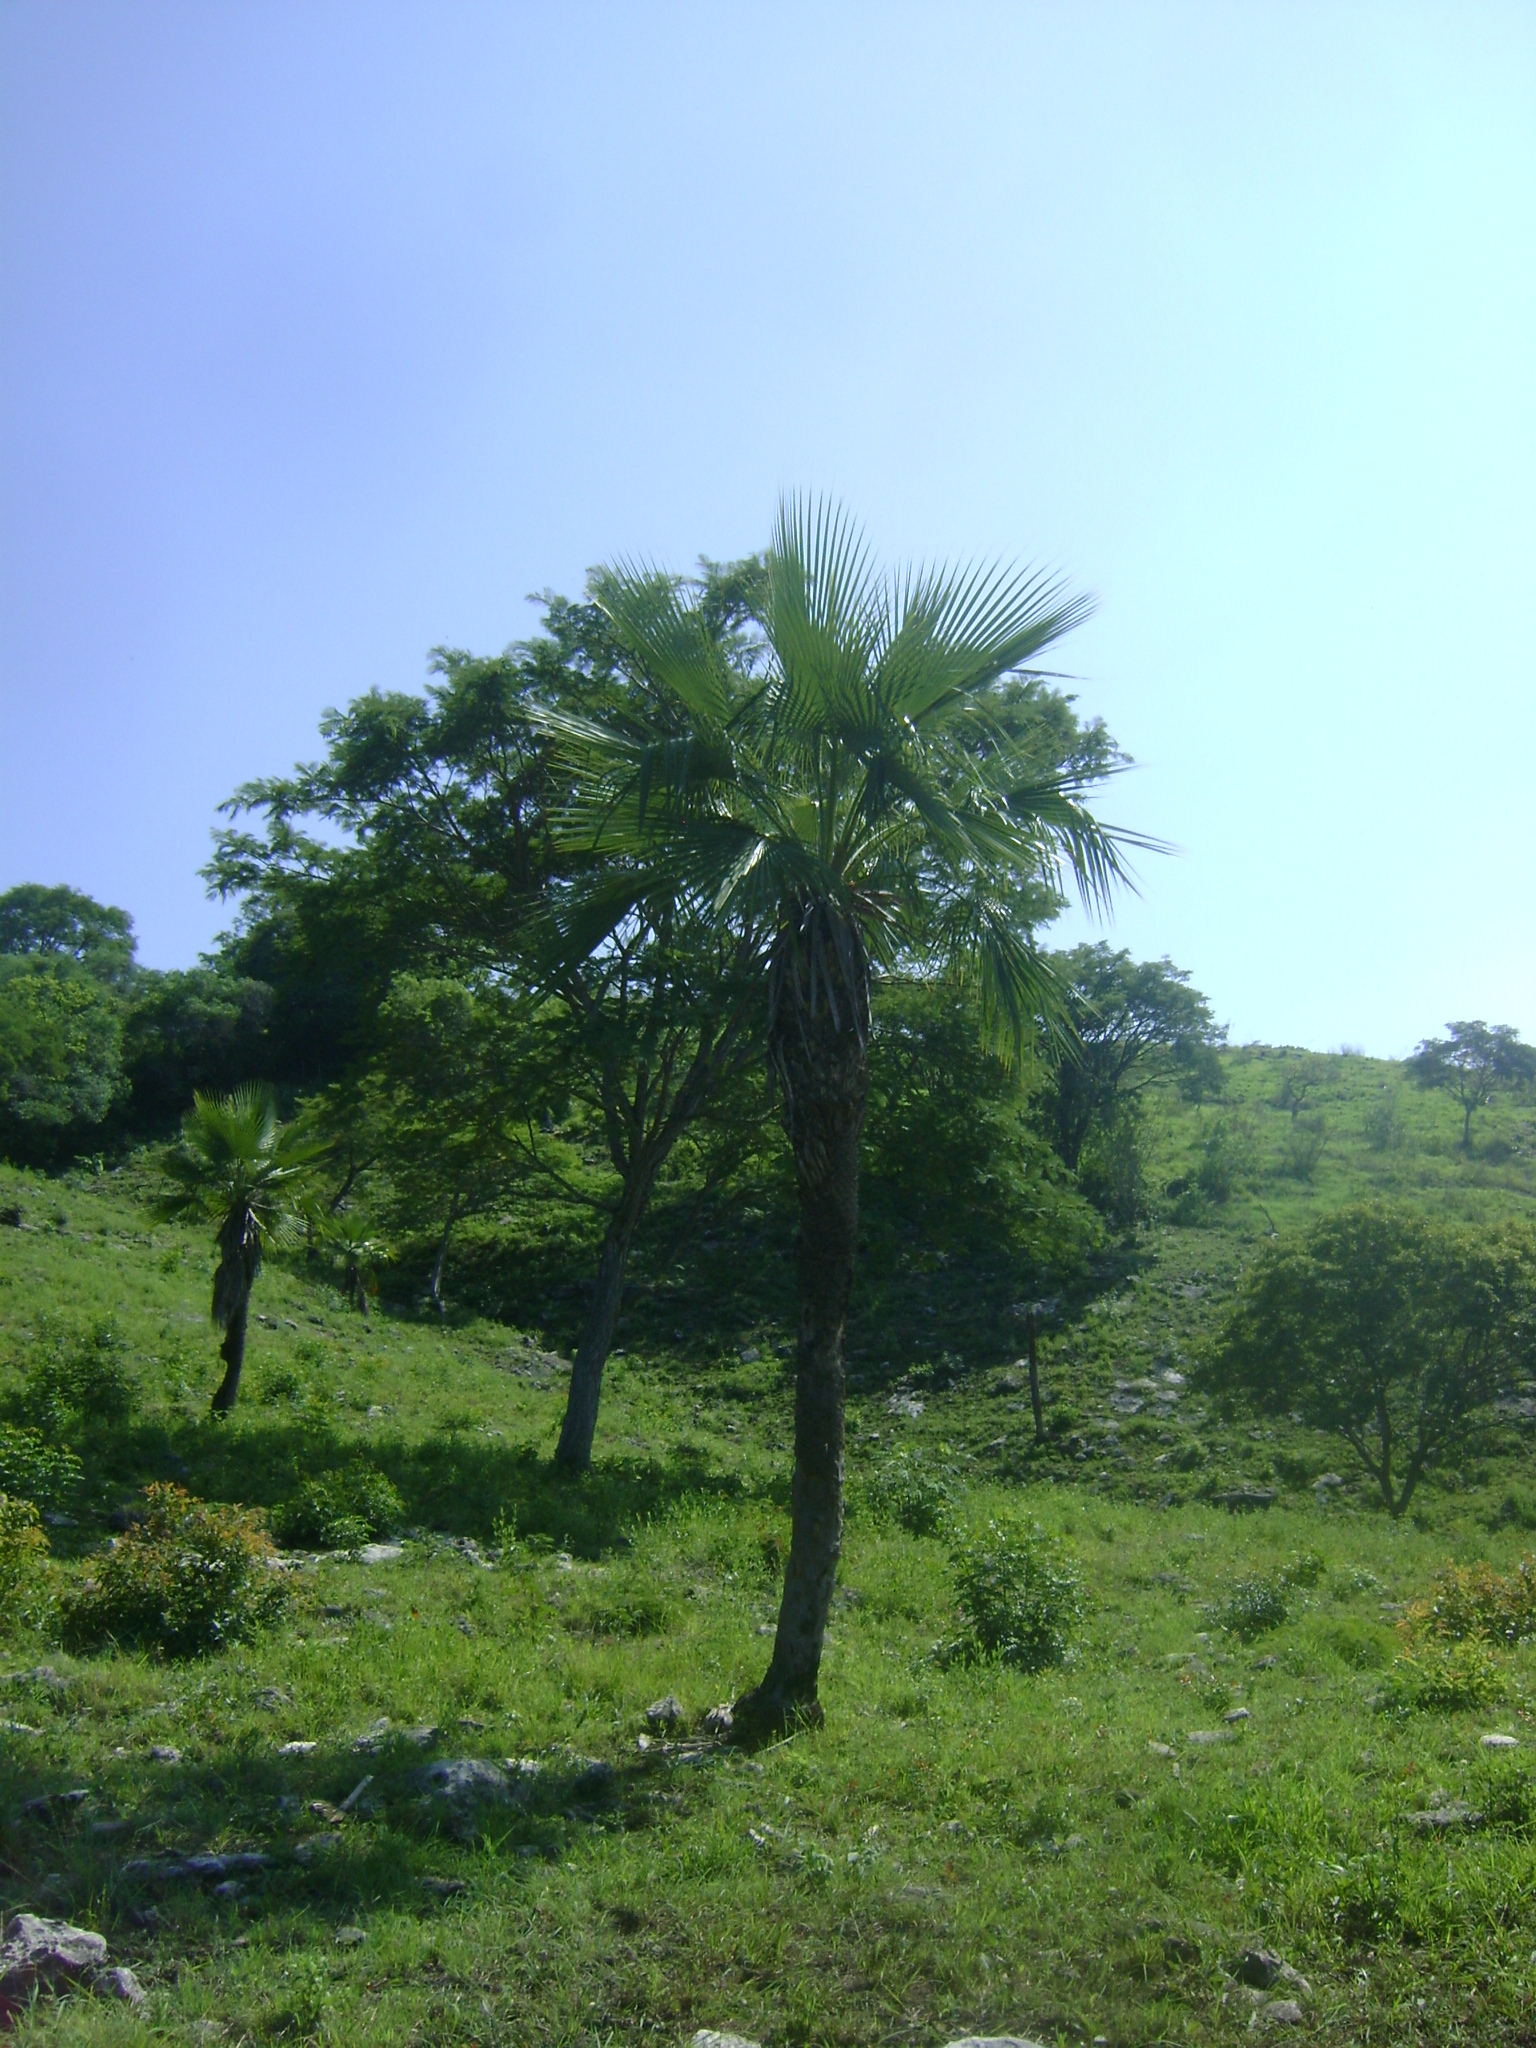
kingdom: Plantae
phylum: Tracheophyta
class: Liliopsida
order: Arecales
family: Arecaceae
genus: Brahea
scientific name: Brahea dulcis
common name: Apak palm
